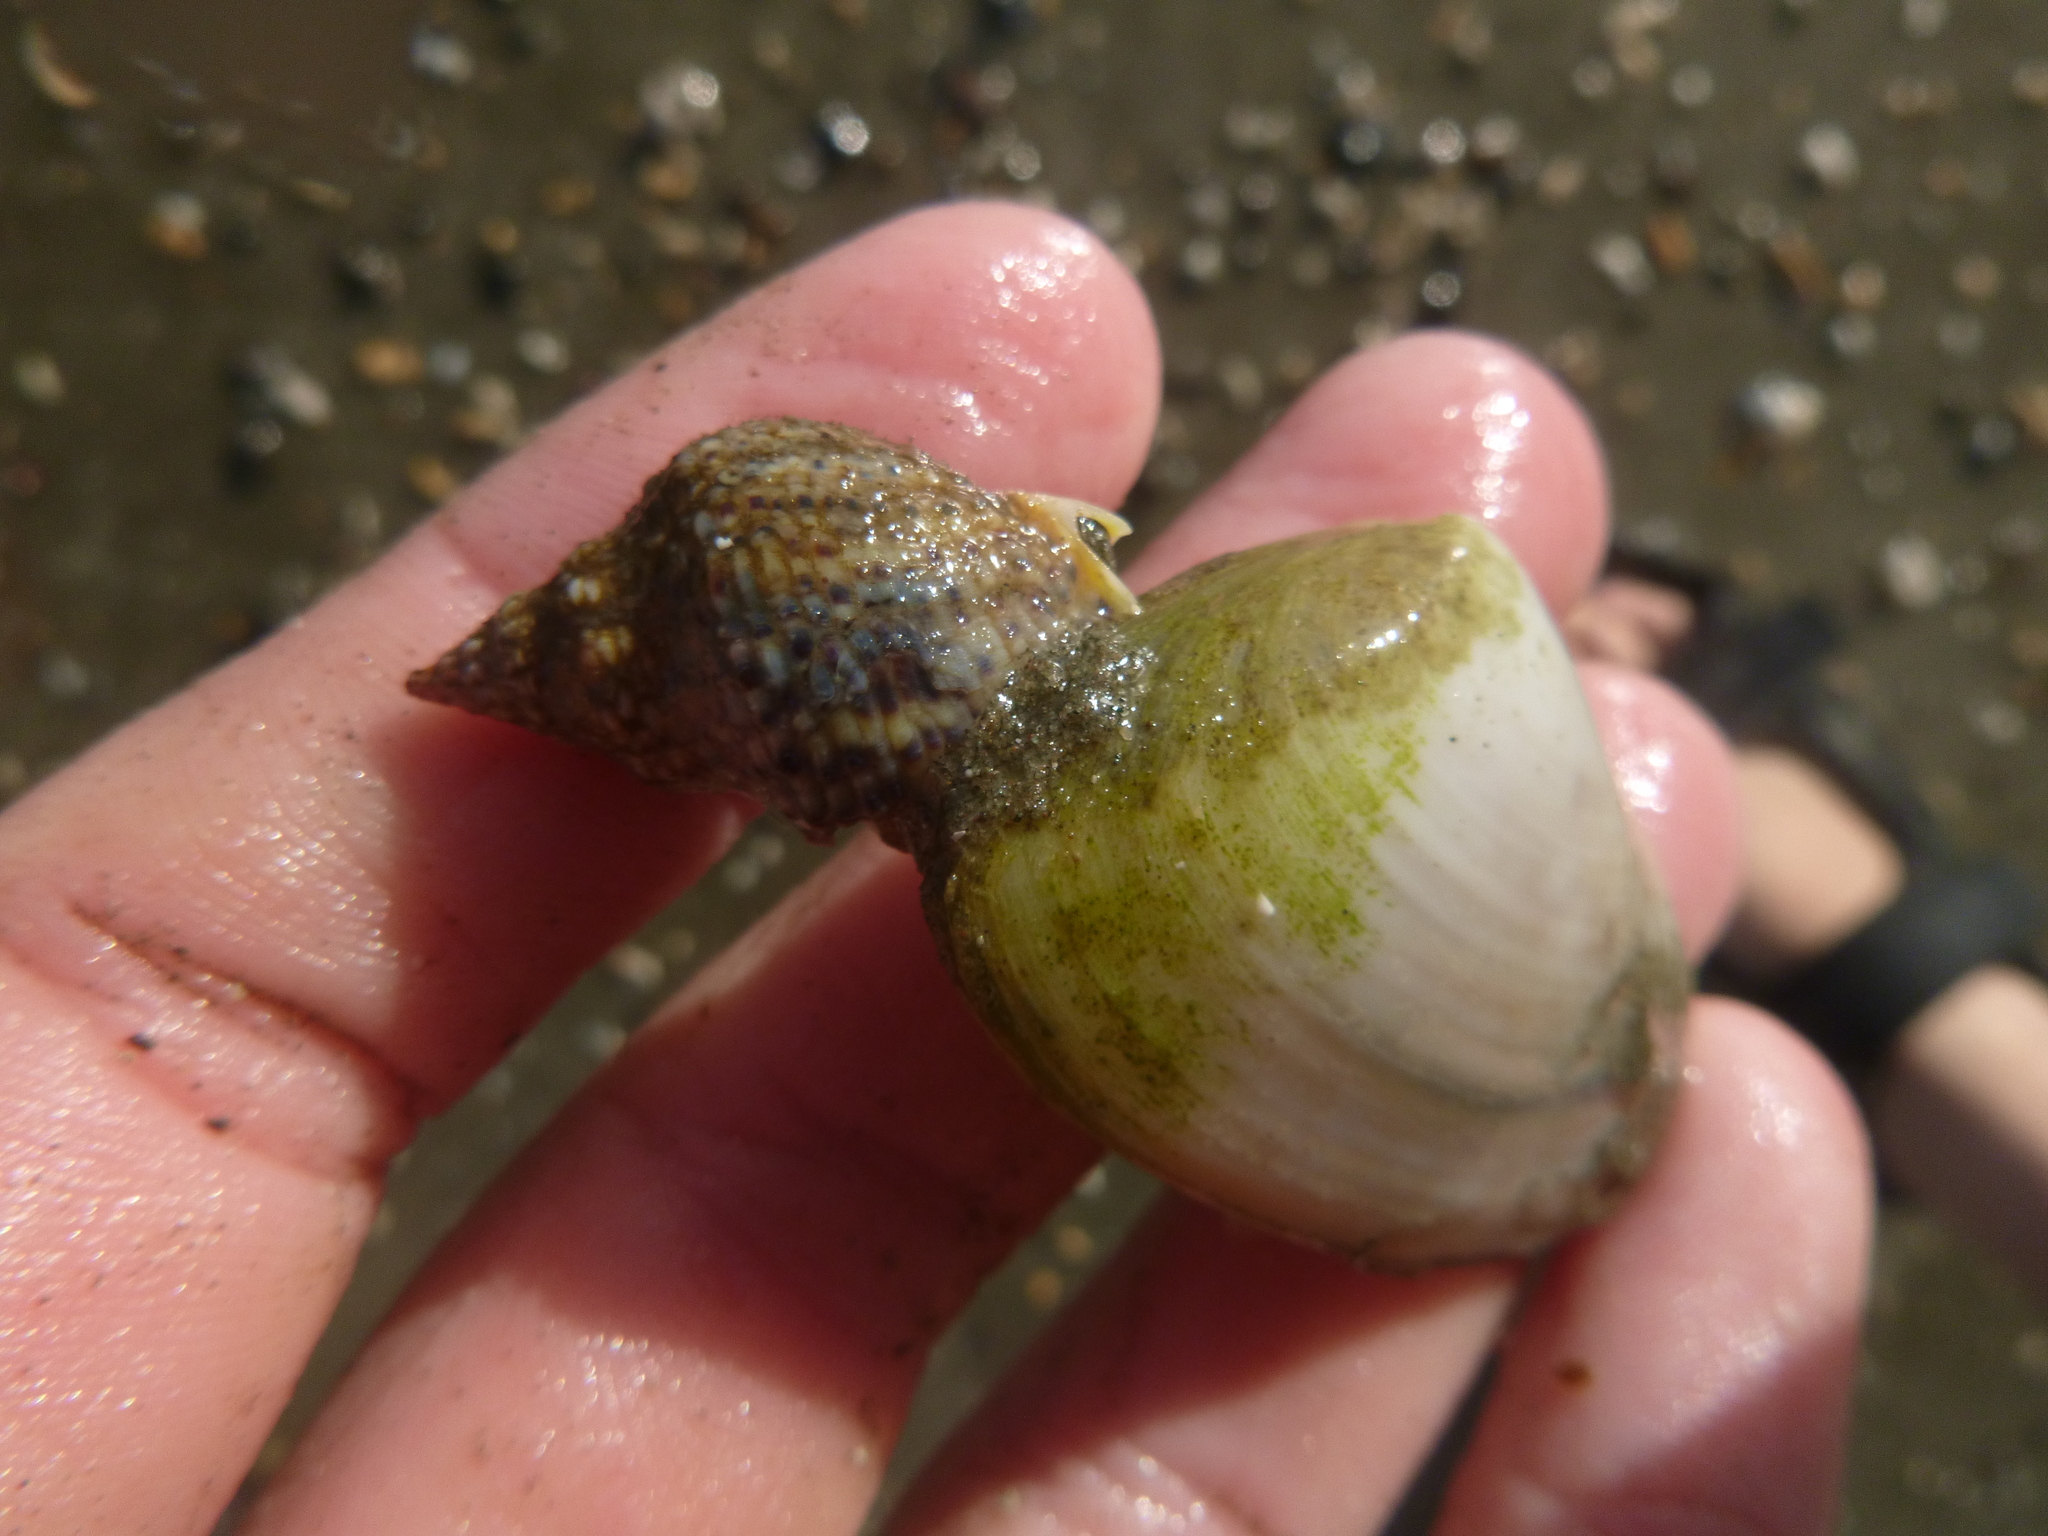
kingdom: Animalia
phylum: Mollusca
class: Gastropoda
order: Neogastropoda
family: Cominellidae
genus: Cominella
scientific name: Cominella adspersa
